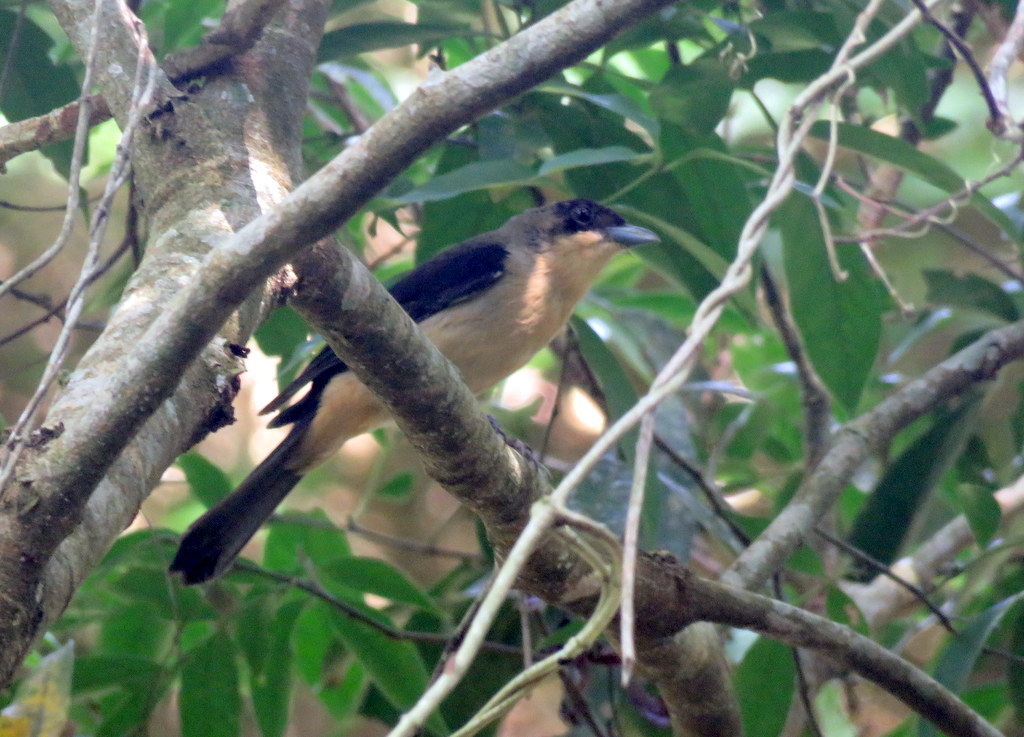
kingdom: Animalia
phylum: Chordata
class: Aves
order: Passeriformes
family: Thraupidae
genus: Trichothraupis
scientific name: Trichothraupis melanops
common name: Black-goggled tanager
